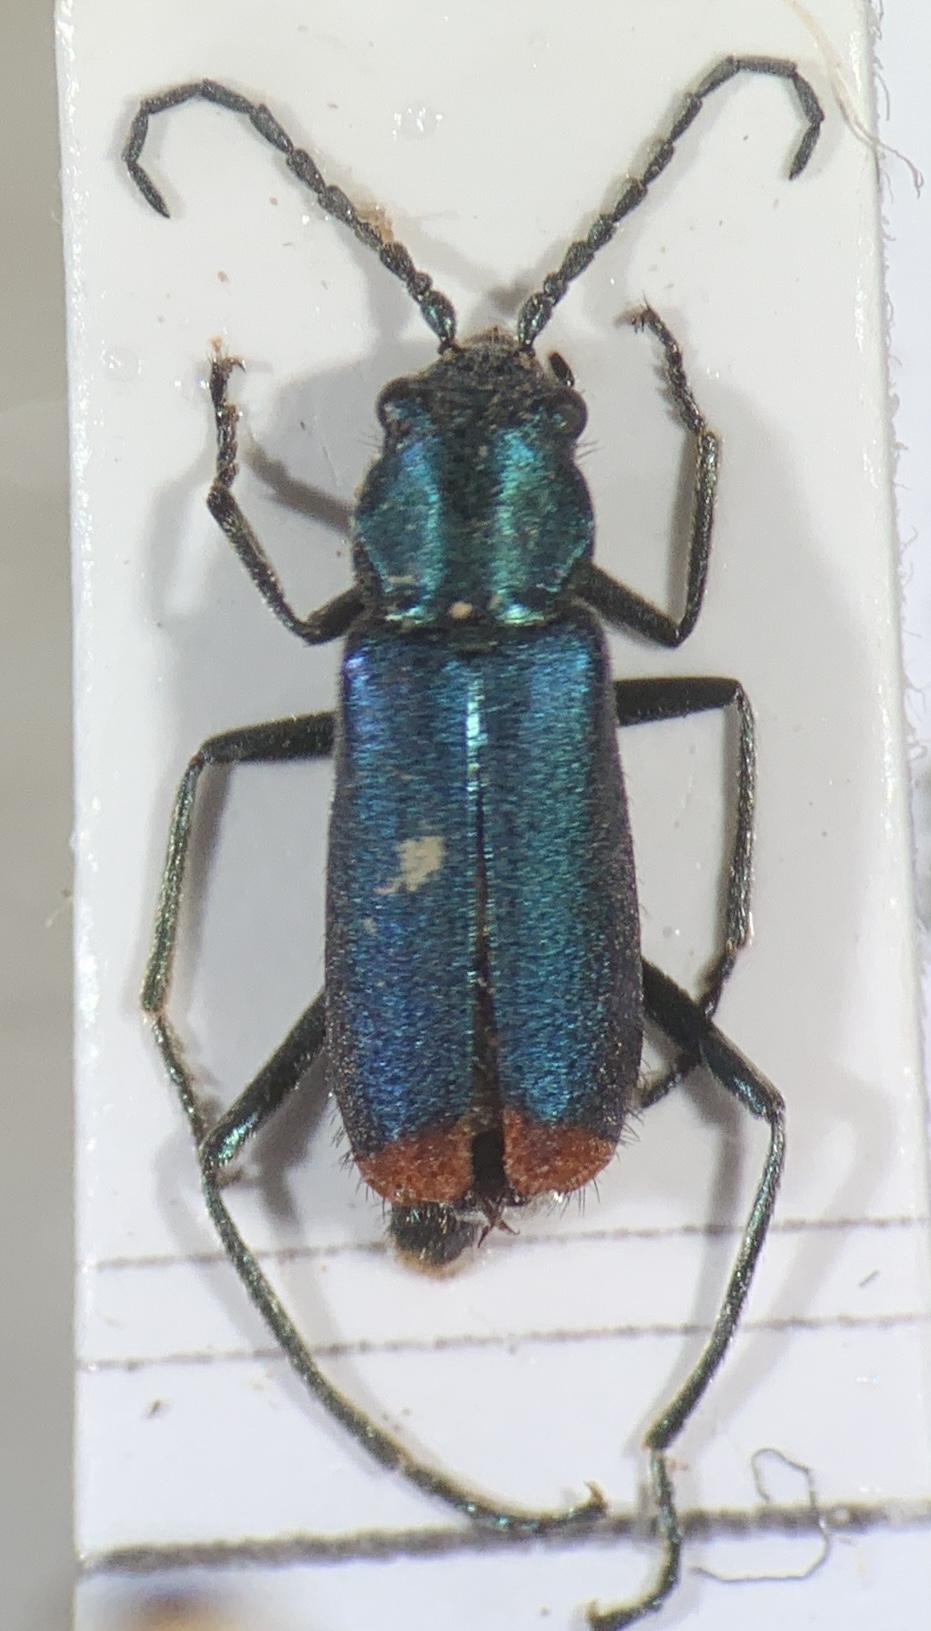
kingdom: Animalia
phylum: Arthropoda
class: Insecta
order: Coleoptera
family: Melyridae
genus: Anthomalachius
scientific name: Anthomalachius spinosus
